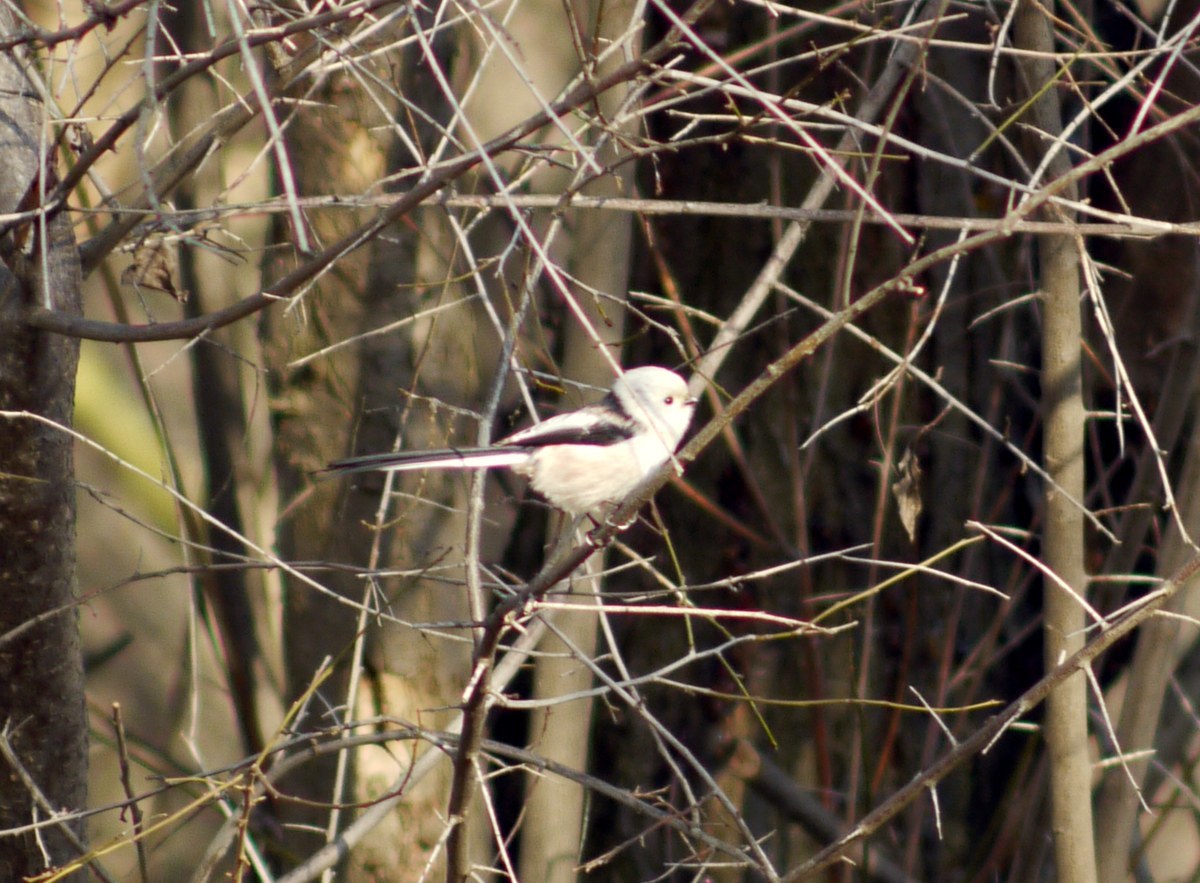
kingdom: Animalia
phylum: Chordata
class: Aves
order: Passeriformes
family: Aegithalidae
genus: Aegithalos
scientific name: Aegithalos caudatus
